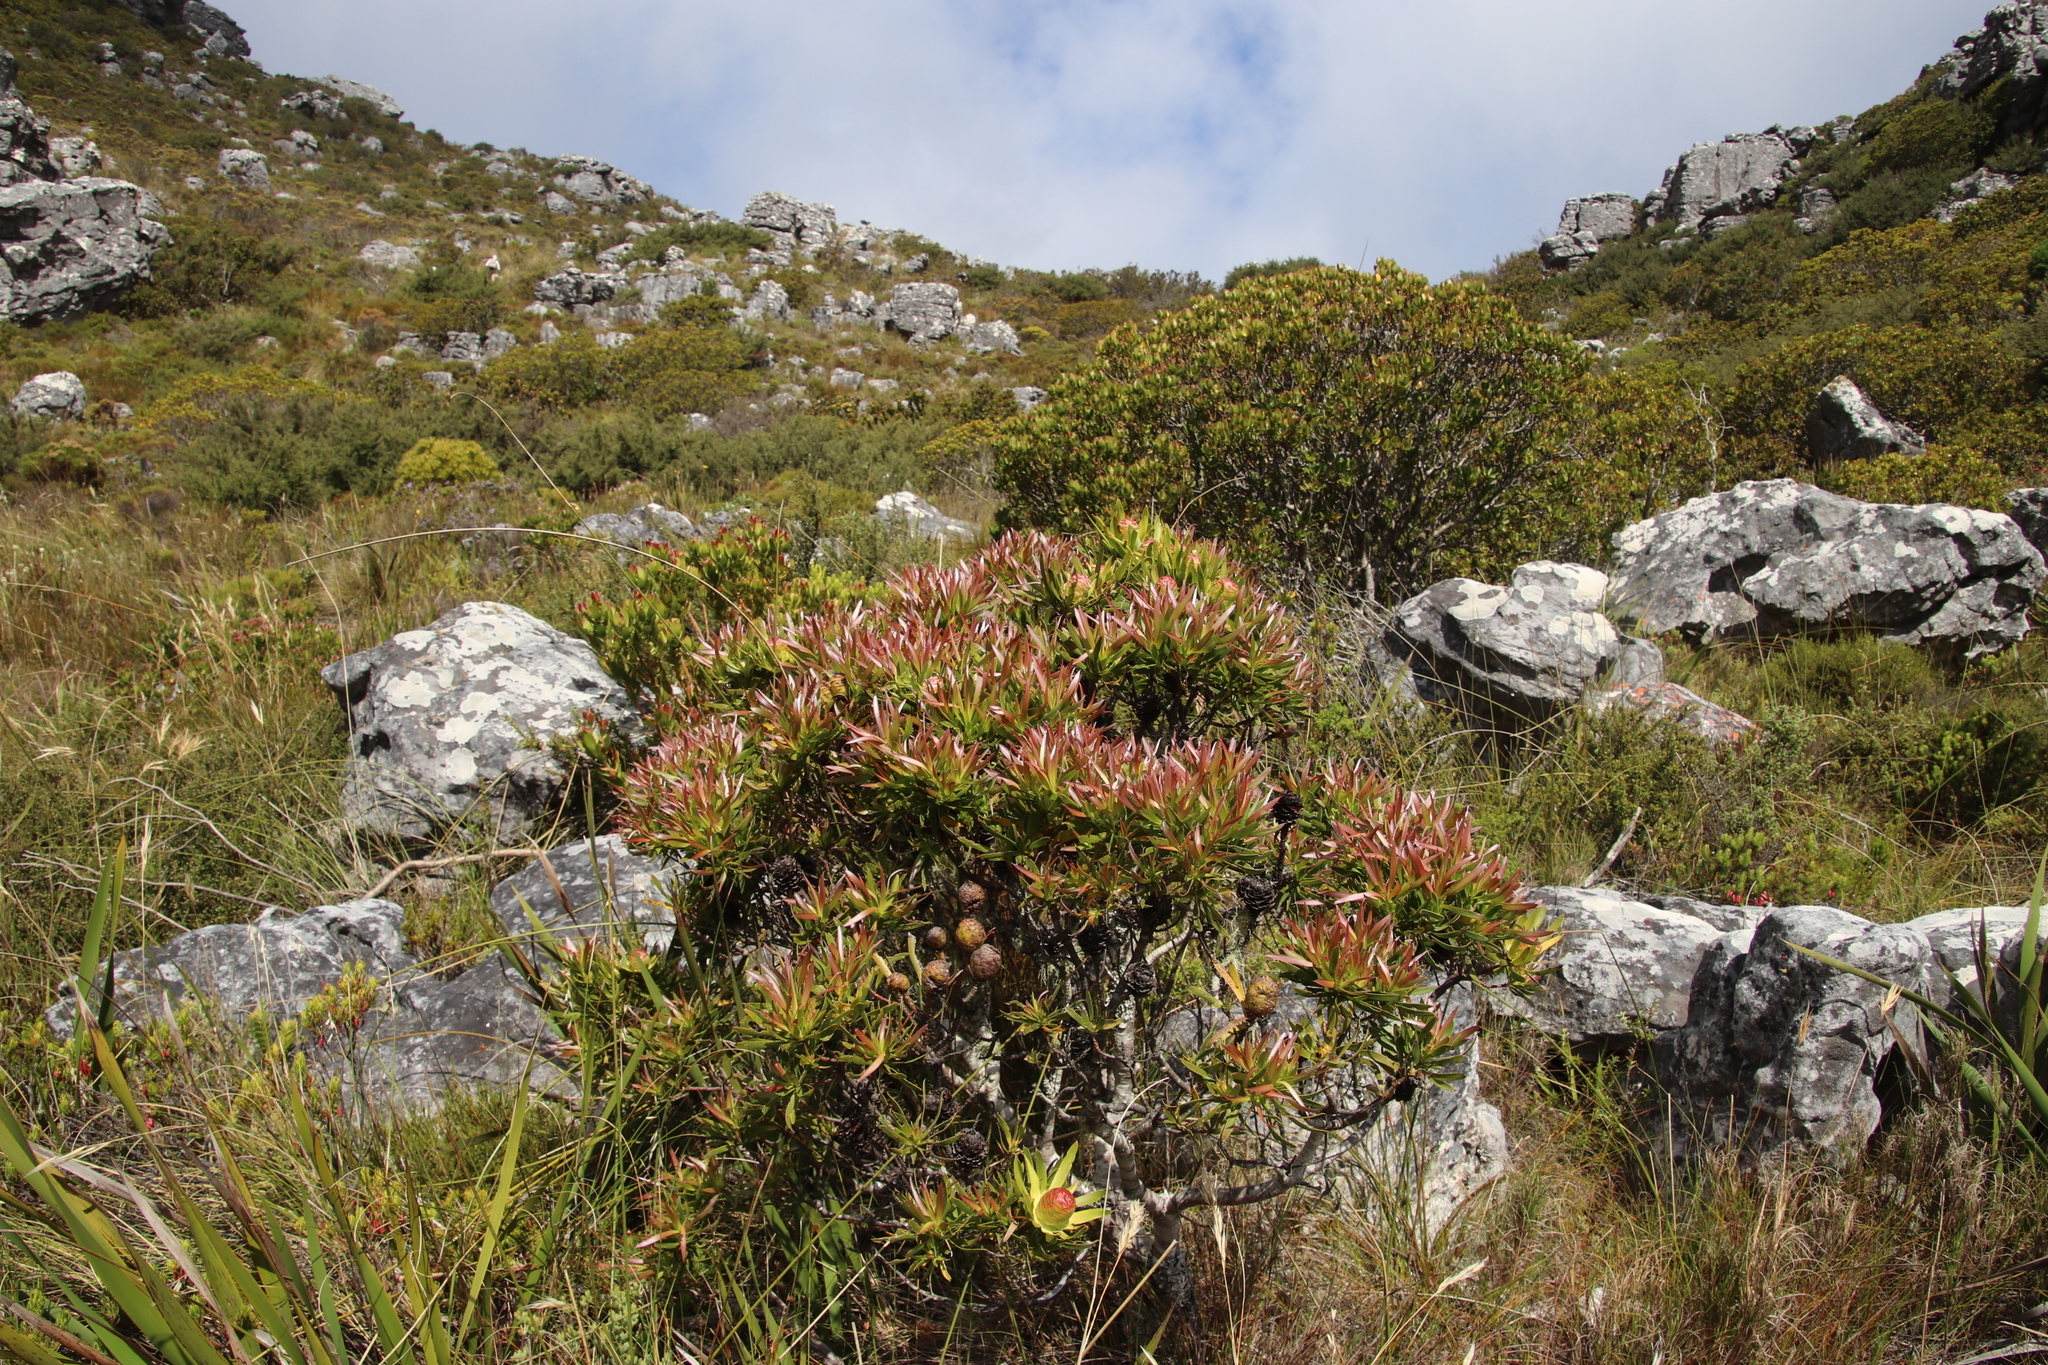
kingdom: Plantae
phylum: Tracheophyta
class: Magnoliopsida
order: Proteales
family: Proteaceae
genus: Leucadendron
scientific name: Leucadendron
